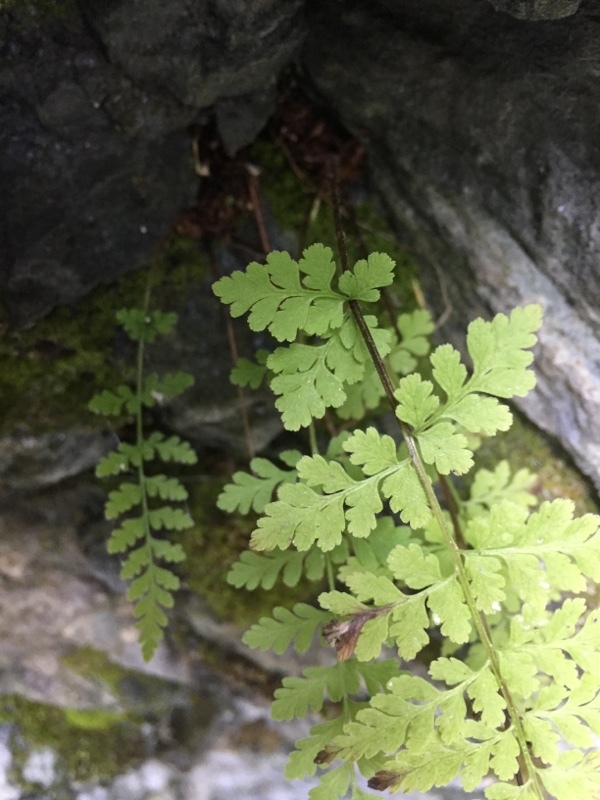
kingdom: Plantae
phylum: Tracheophyta
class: Polypodiopsida
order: Polypodiales
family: Cystopteridaceae
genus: Cystopteris
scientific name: Cystopteris fragilis
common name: Brittle bladder fern
